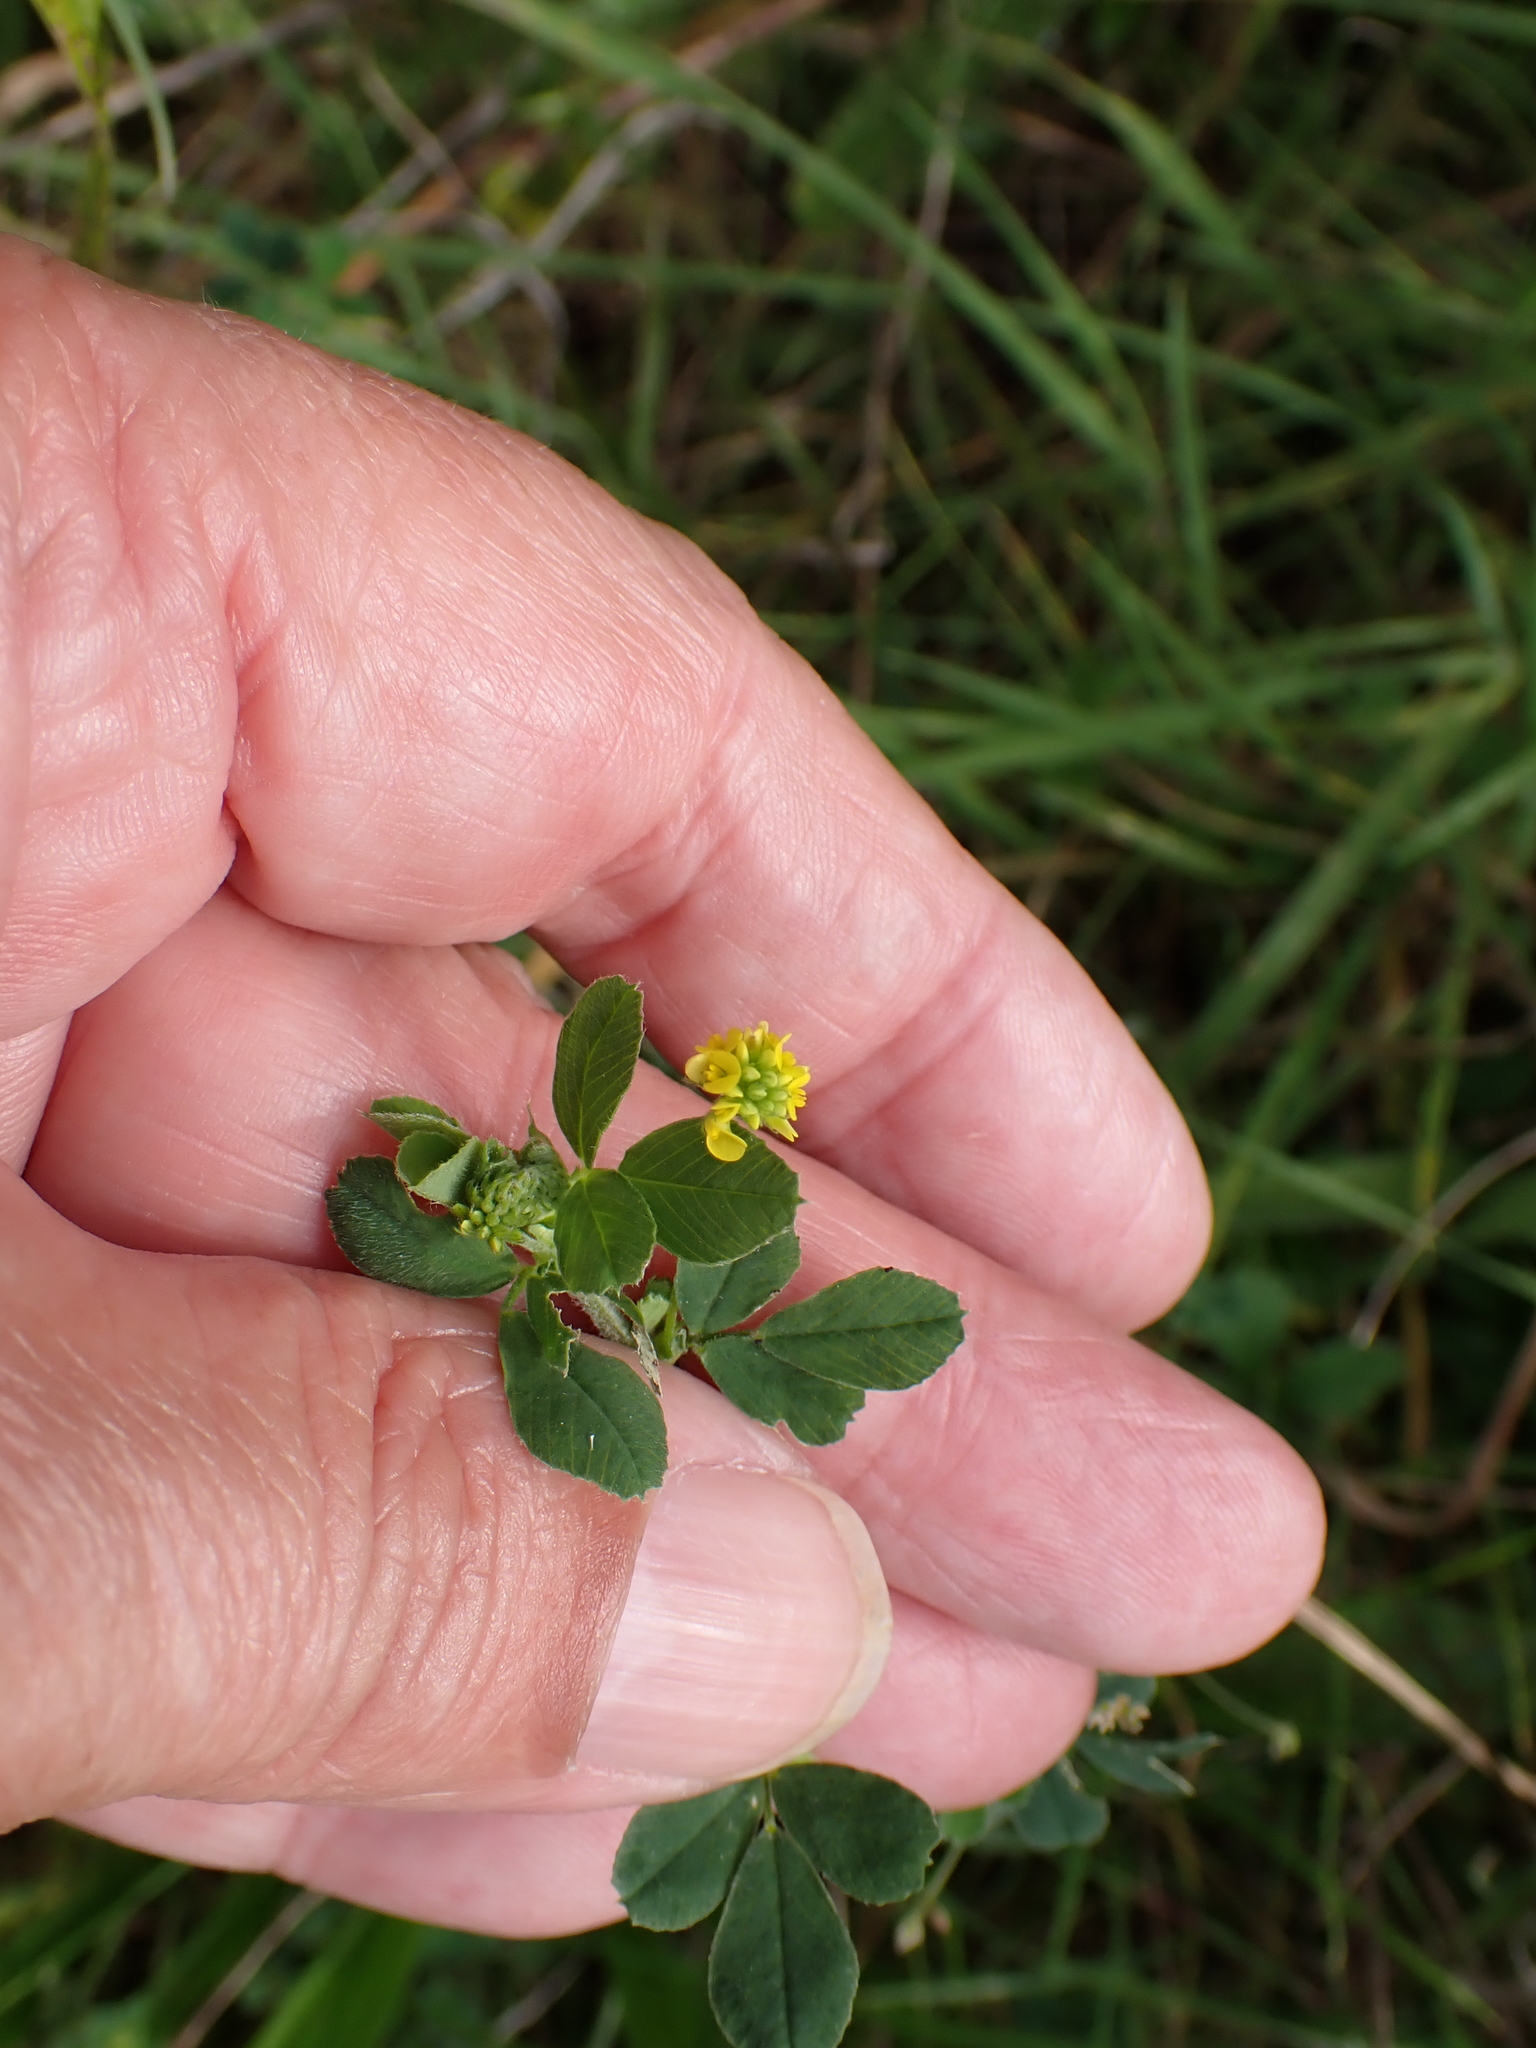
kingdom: Plantae
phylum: Tracheophyta
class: Magnoliopsida
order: Fabales
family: Fabaceae
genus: Medicago
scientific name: Medicago lupulina
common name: Black medick
